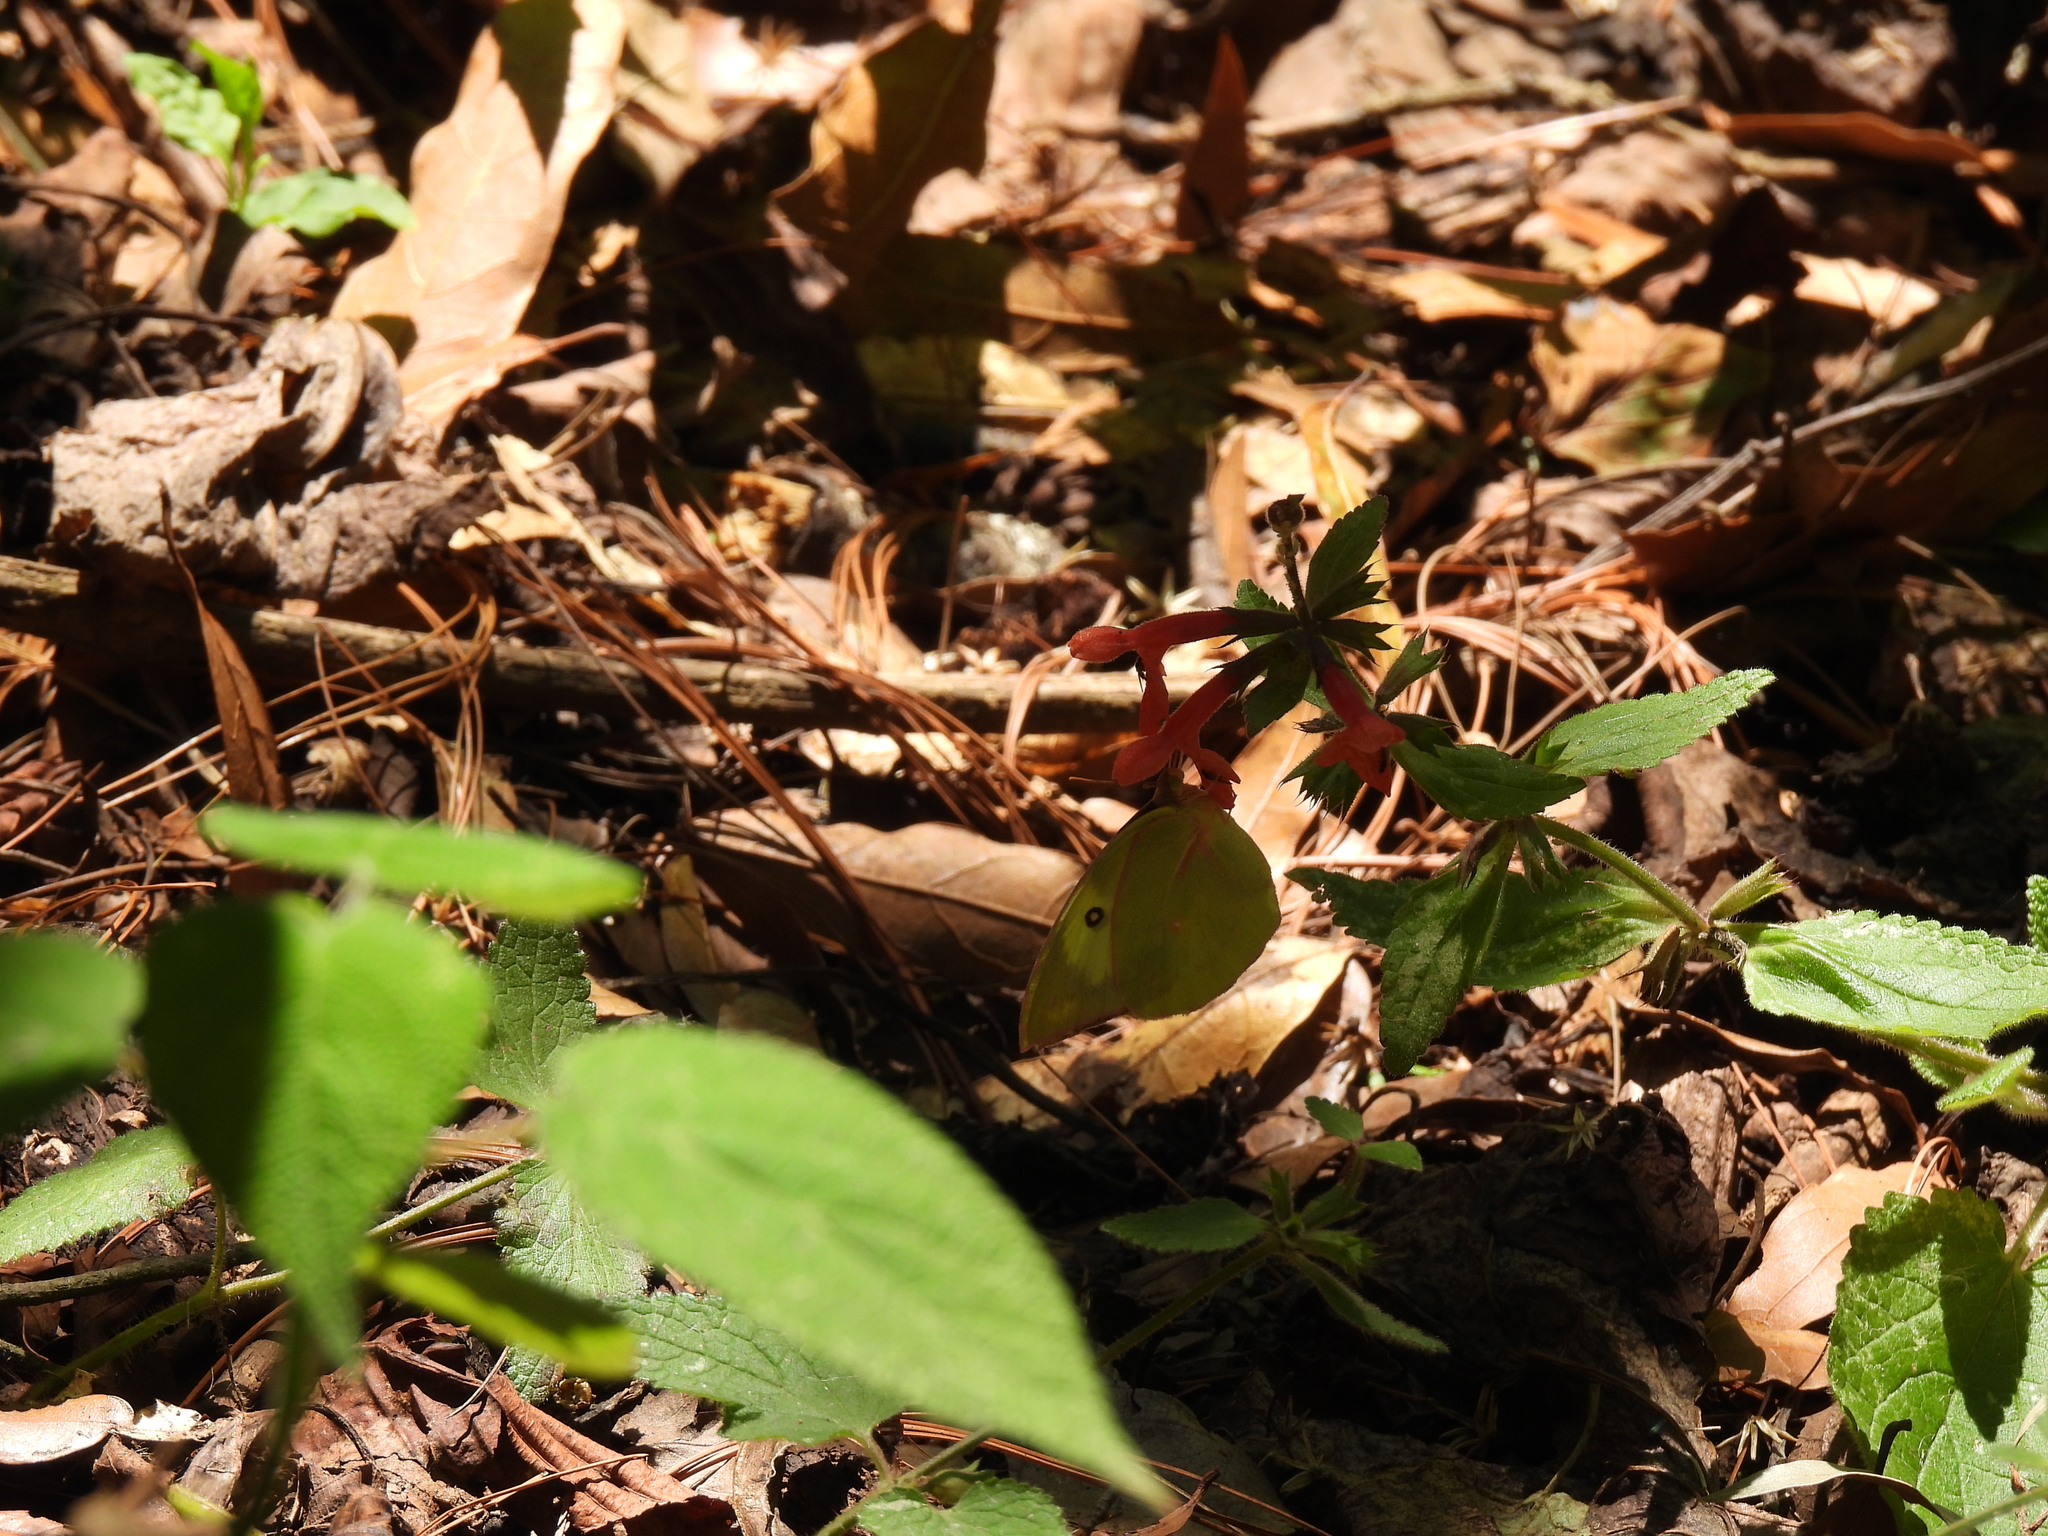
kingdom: Animalia
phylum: Arthropoda
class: Insecta
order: Lepidoptera
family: Pieridae
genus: Zerene
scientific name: Zerene cesonia
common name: Southern dogface
